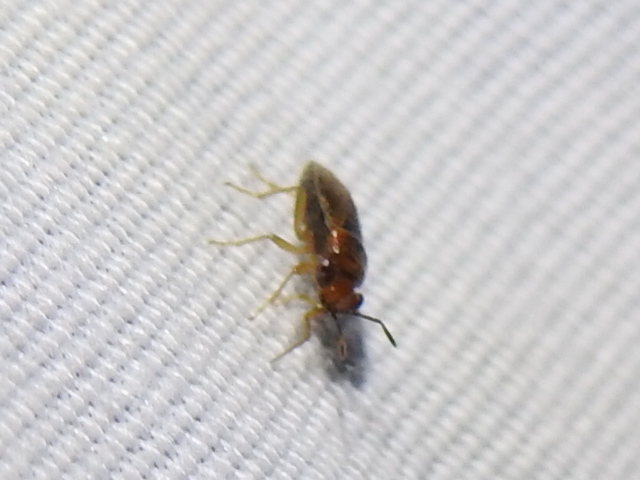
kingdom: Animalia
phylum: Arthropoda
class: Insecta
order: Hemiptera
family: Geocoridae
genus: Isthmocoris
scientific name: Isthmocoris imperialis
